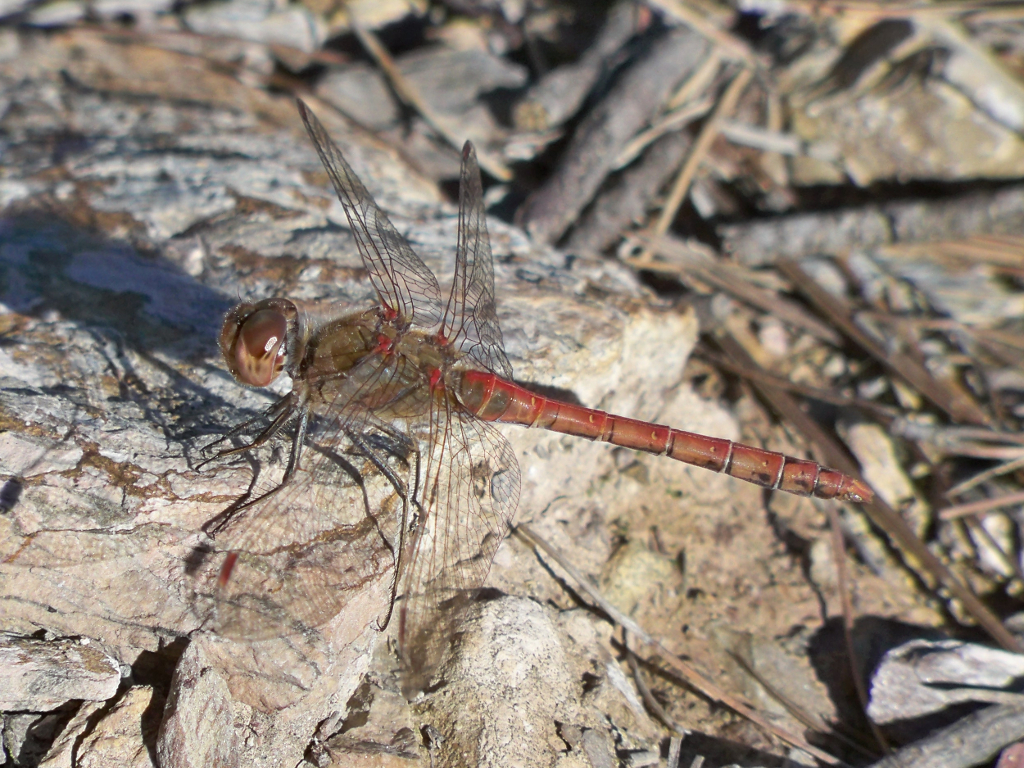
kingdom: Animalia
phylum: Arthropoda
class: Insecta
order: Odonata
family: Libellulidae
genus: Sympetrum
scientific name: Sympetrum striolatum
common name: Common darter
